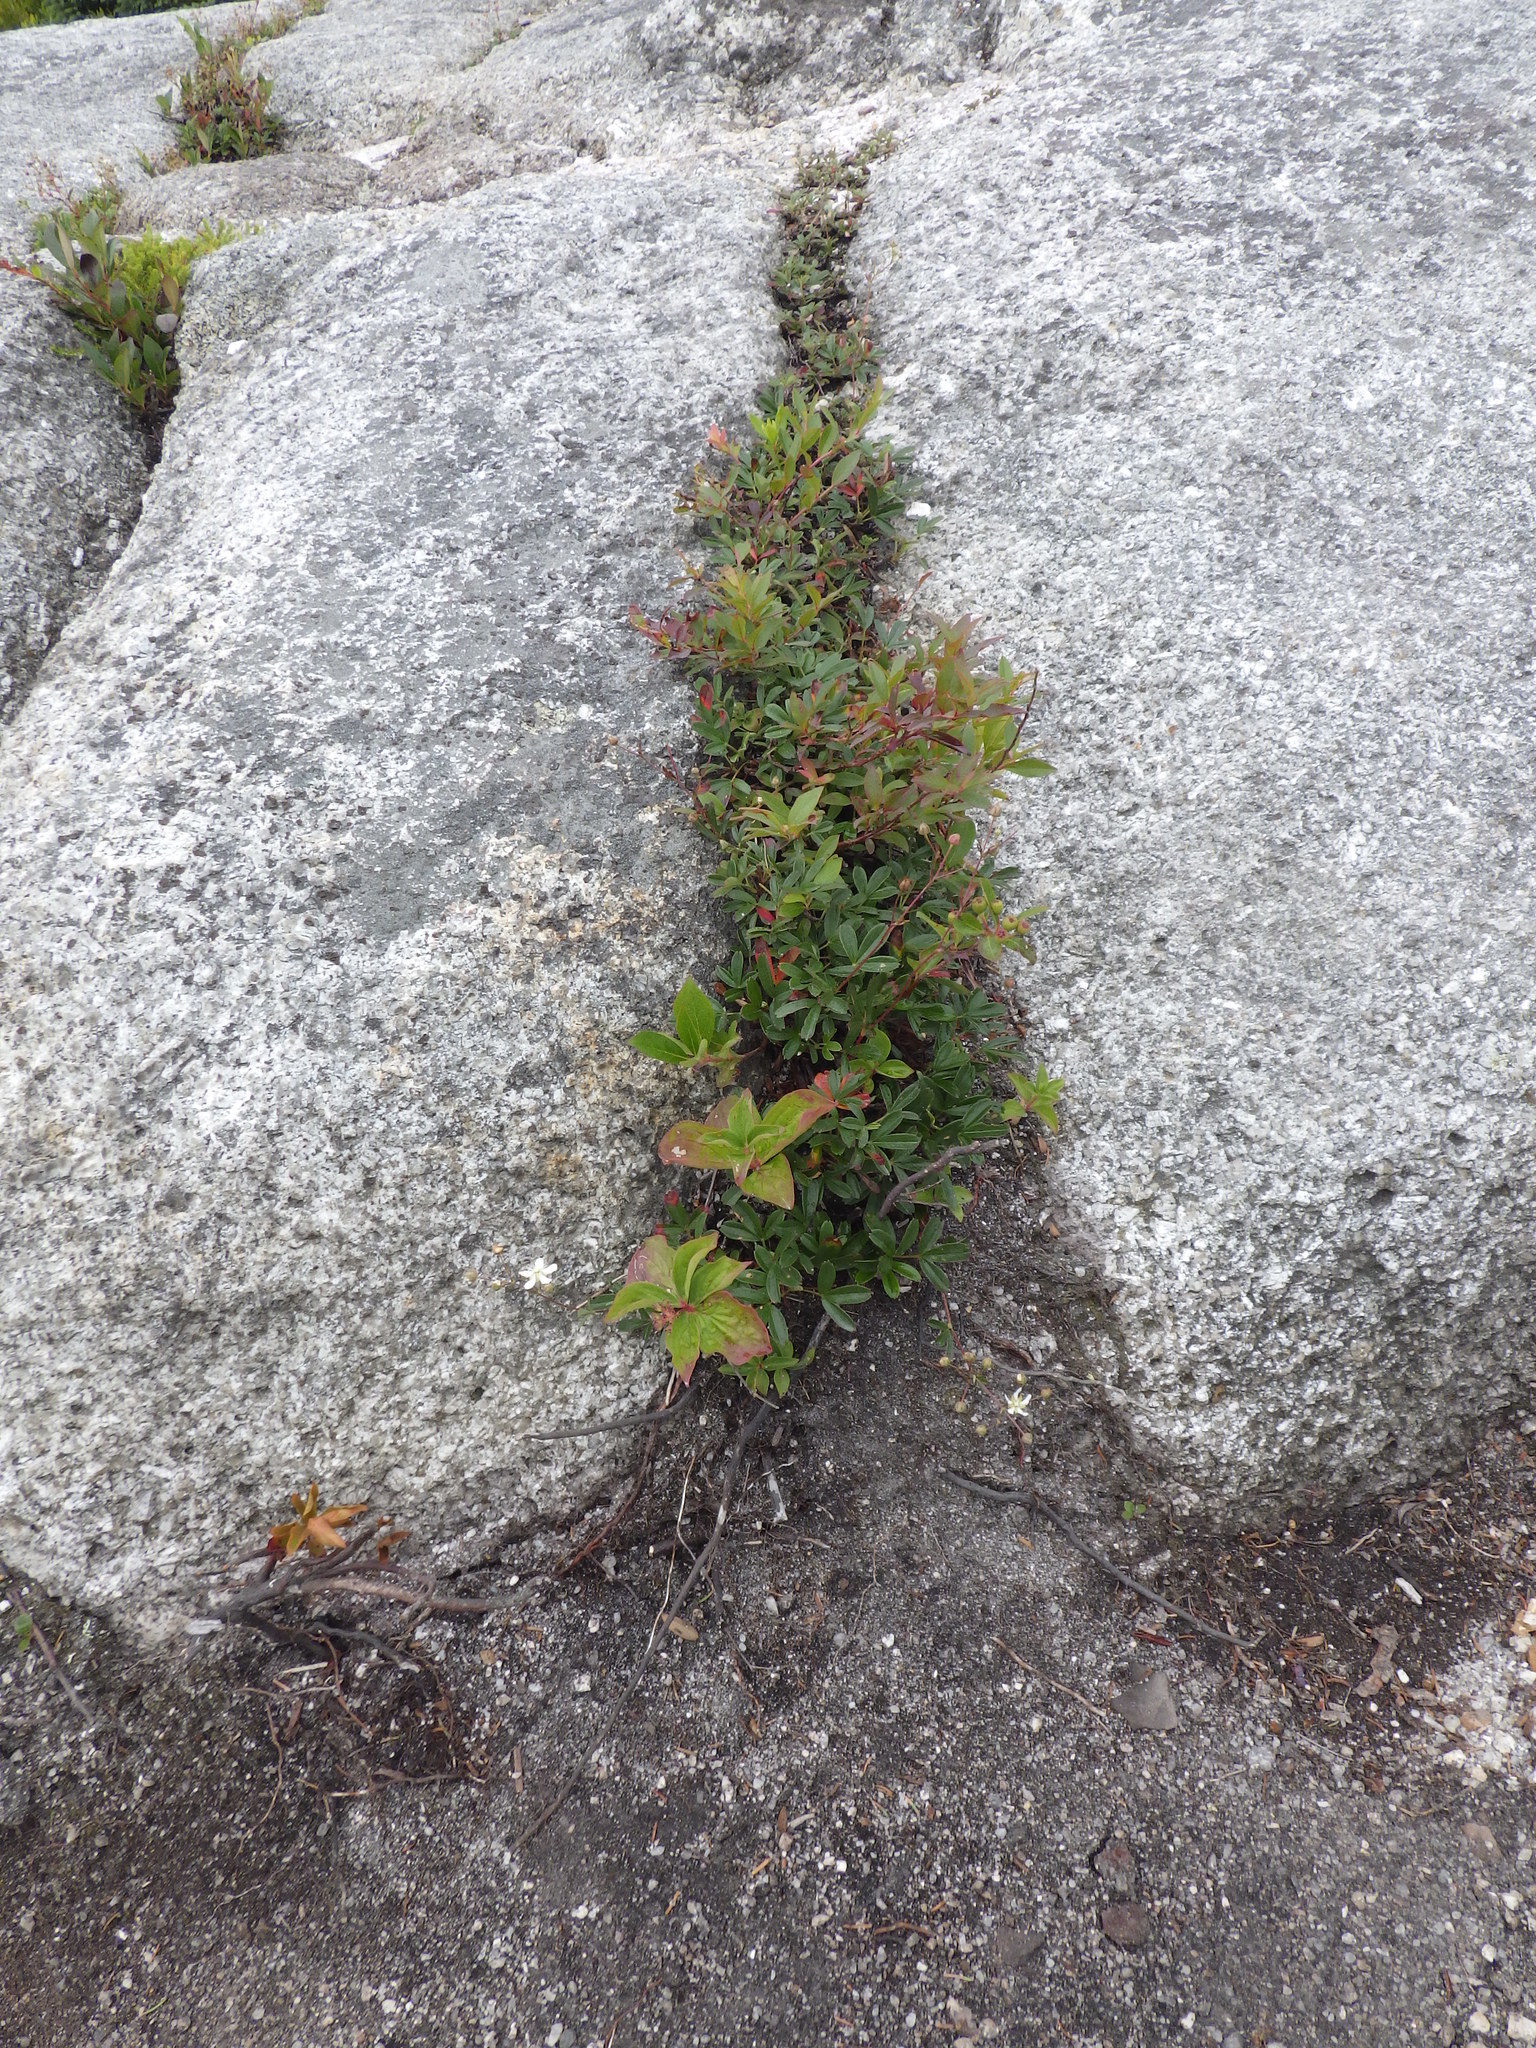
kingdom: Plantae
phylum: Tracheophyta
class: Magnoliopsida
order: Rosales
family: Rosaceae
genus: Sibbaldia
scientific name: Sibbaldia tridentata
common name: Three-toothed cinquefoil
